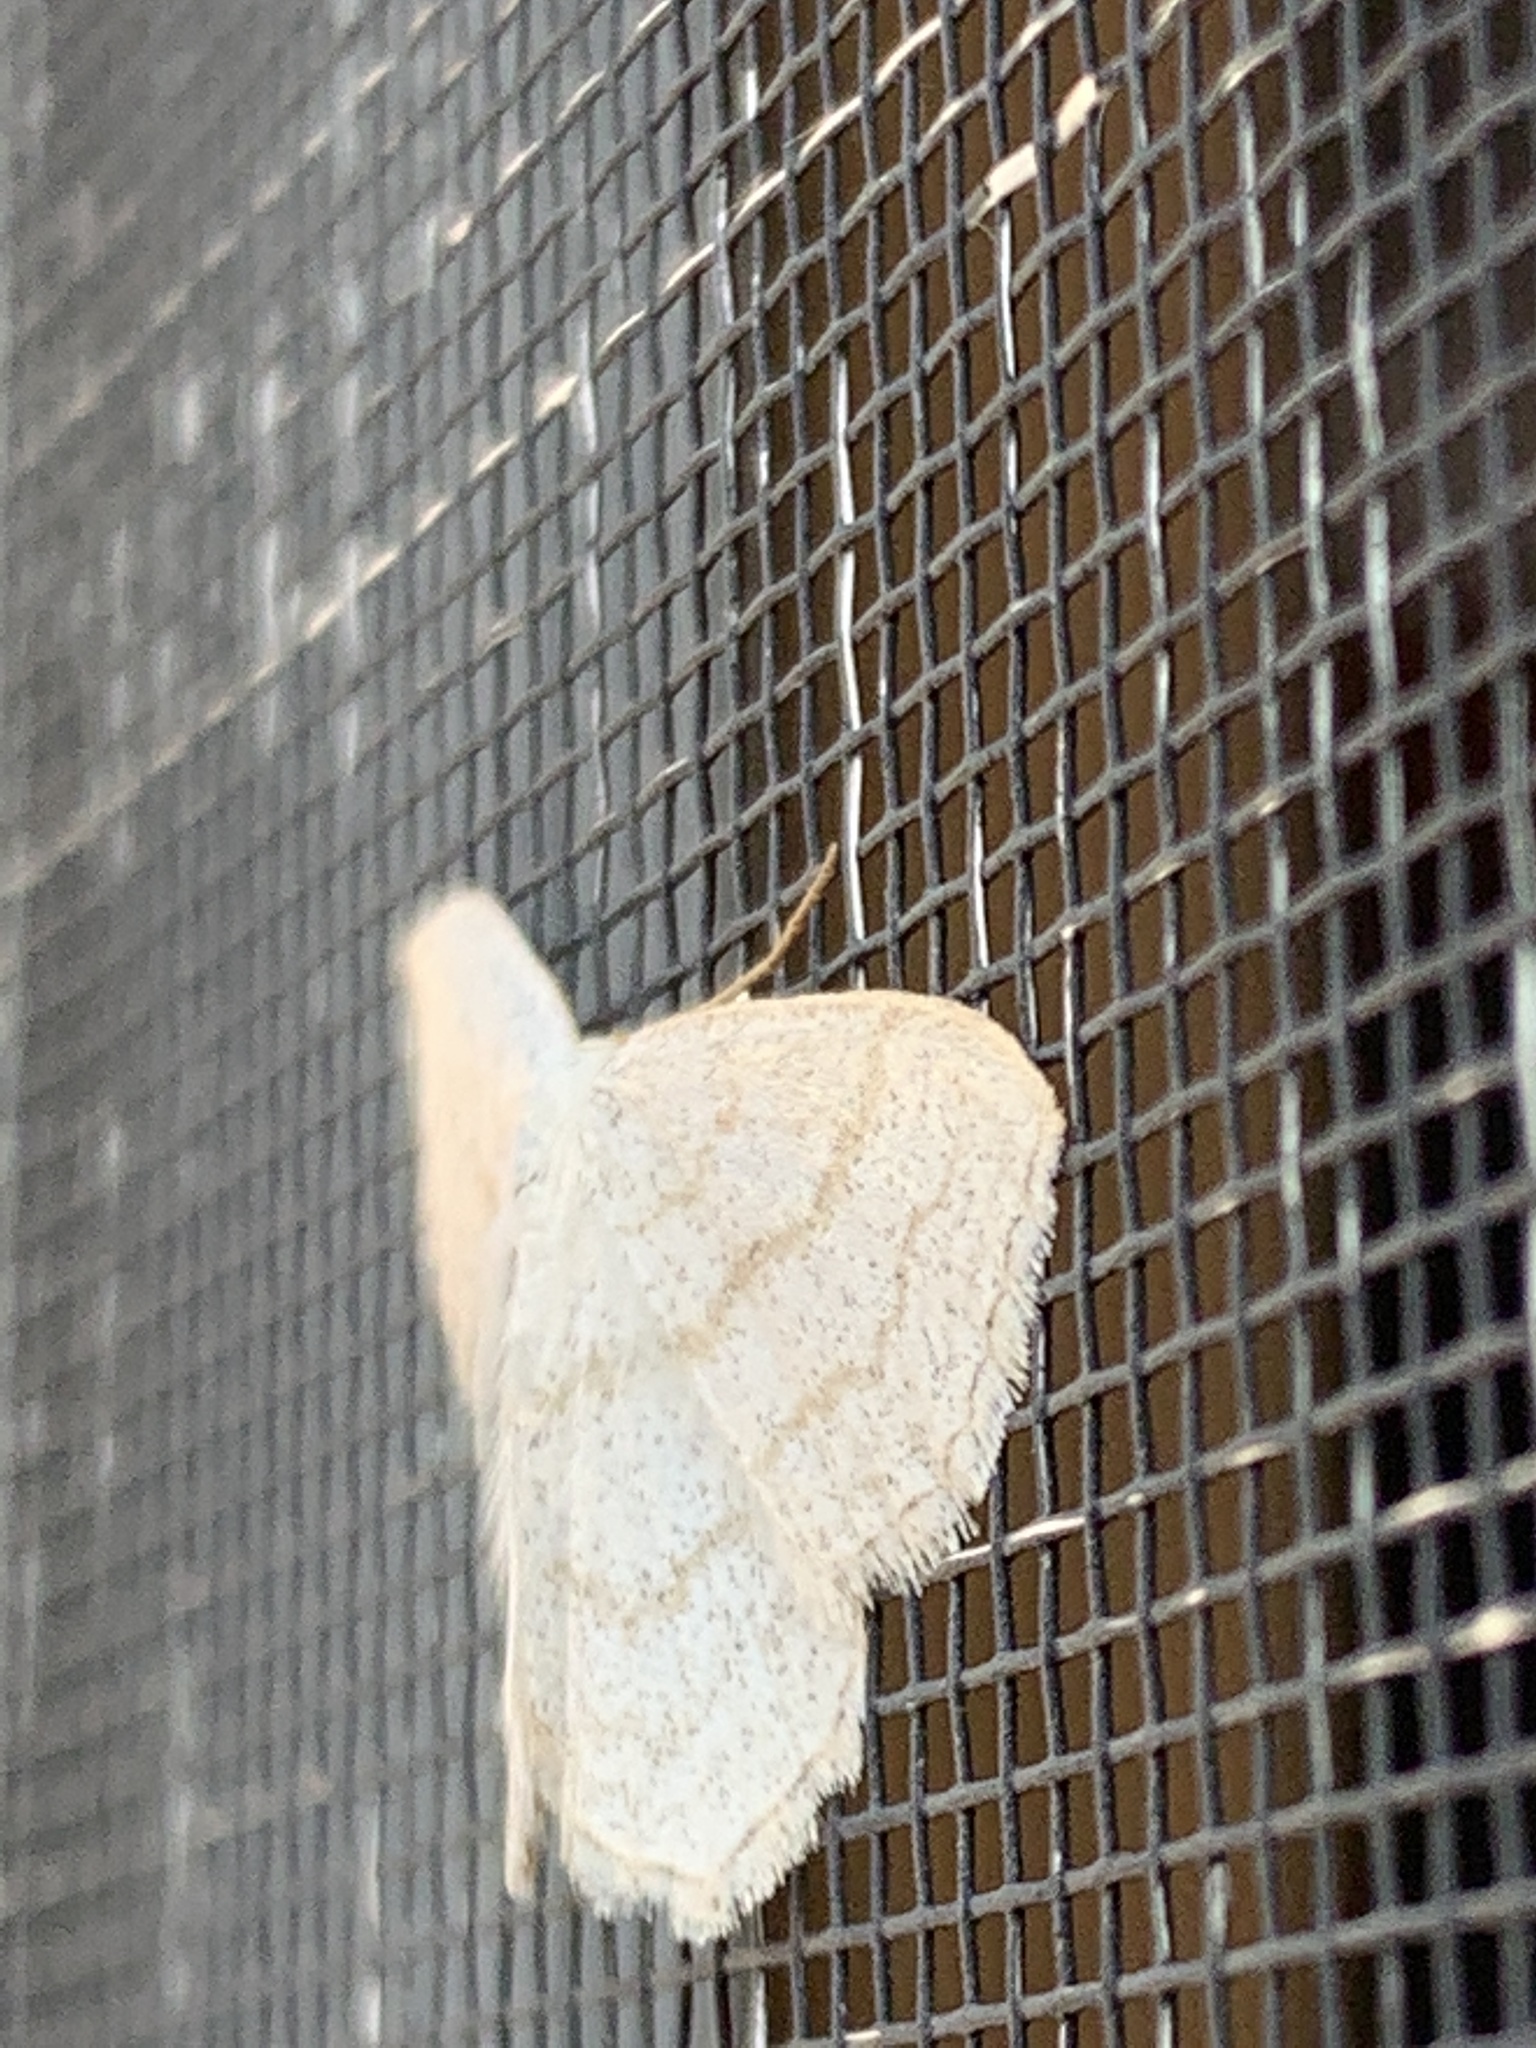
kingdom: Animalia
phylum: Arthropoda
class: Insecta
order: Lepidoptera
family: Geometridae
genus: Scopula
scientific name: Scopula junctaria
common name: Simple wave
